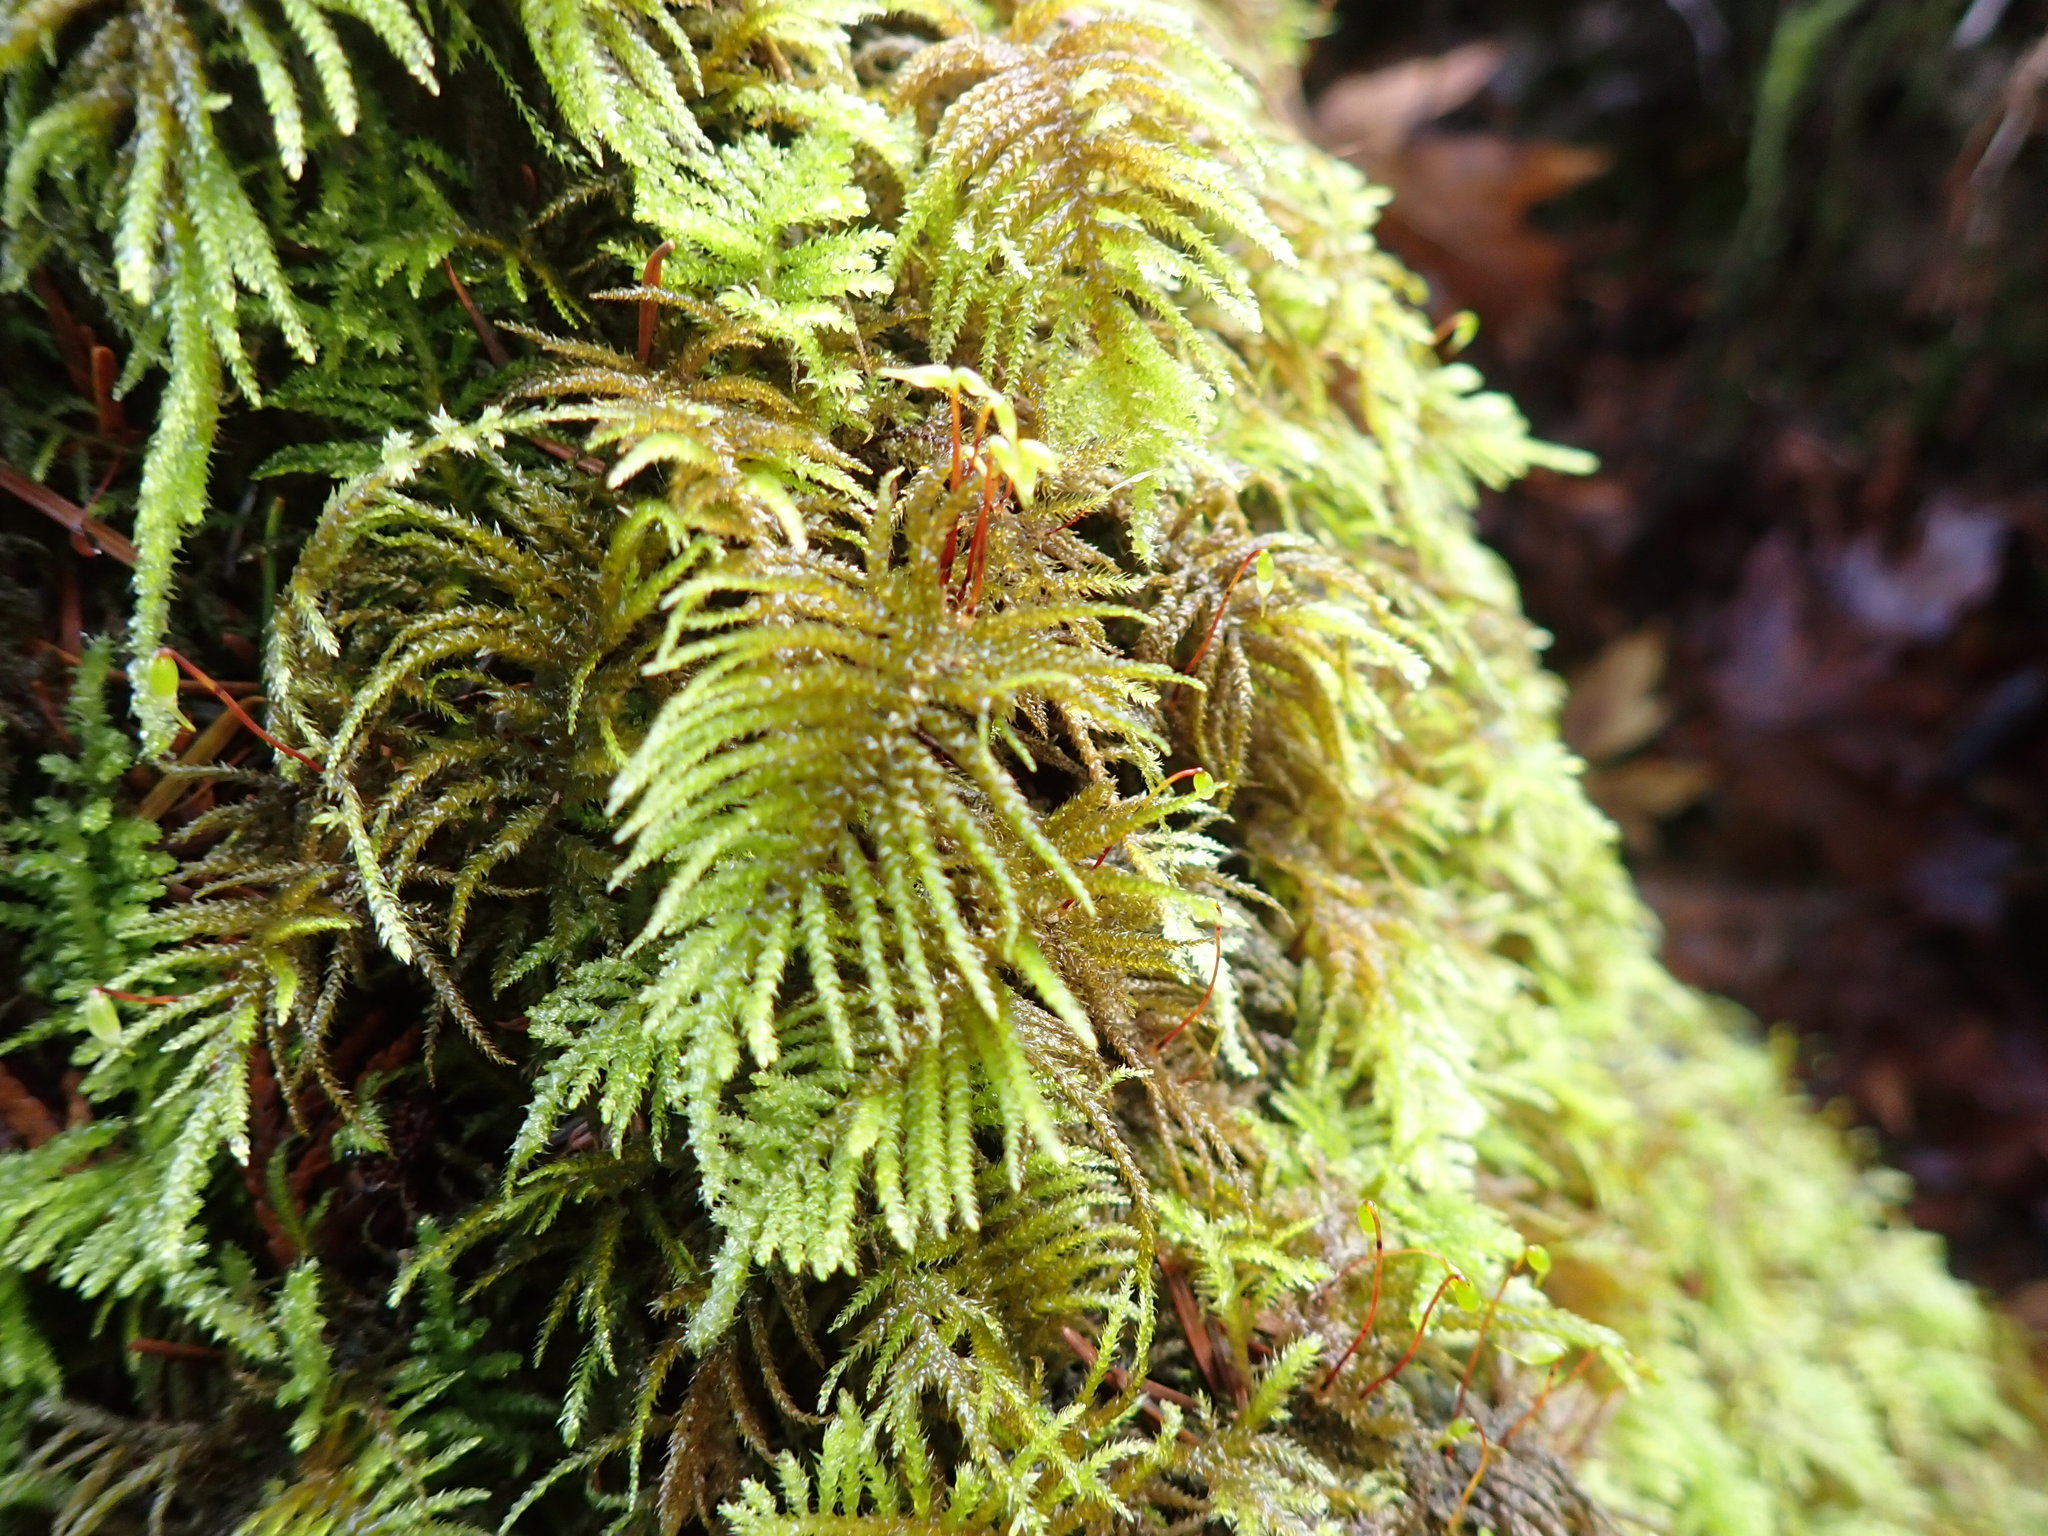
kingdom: Plantae
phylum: Bryophyta
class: Bryopsida
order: Hypnales
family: Brachytheciaceae
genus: Kindbergia
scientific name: Kindbergia oregana
